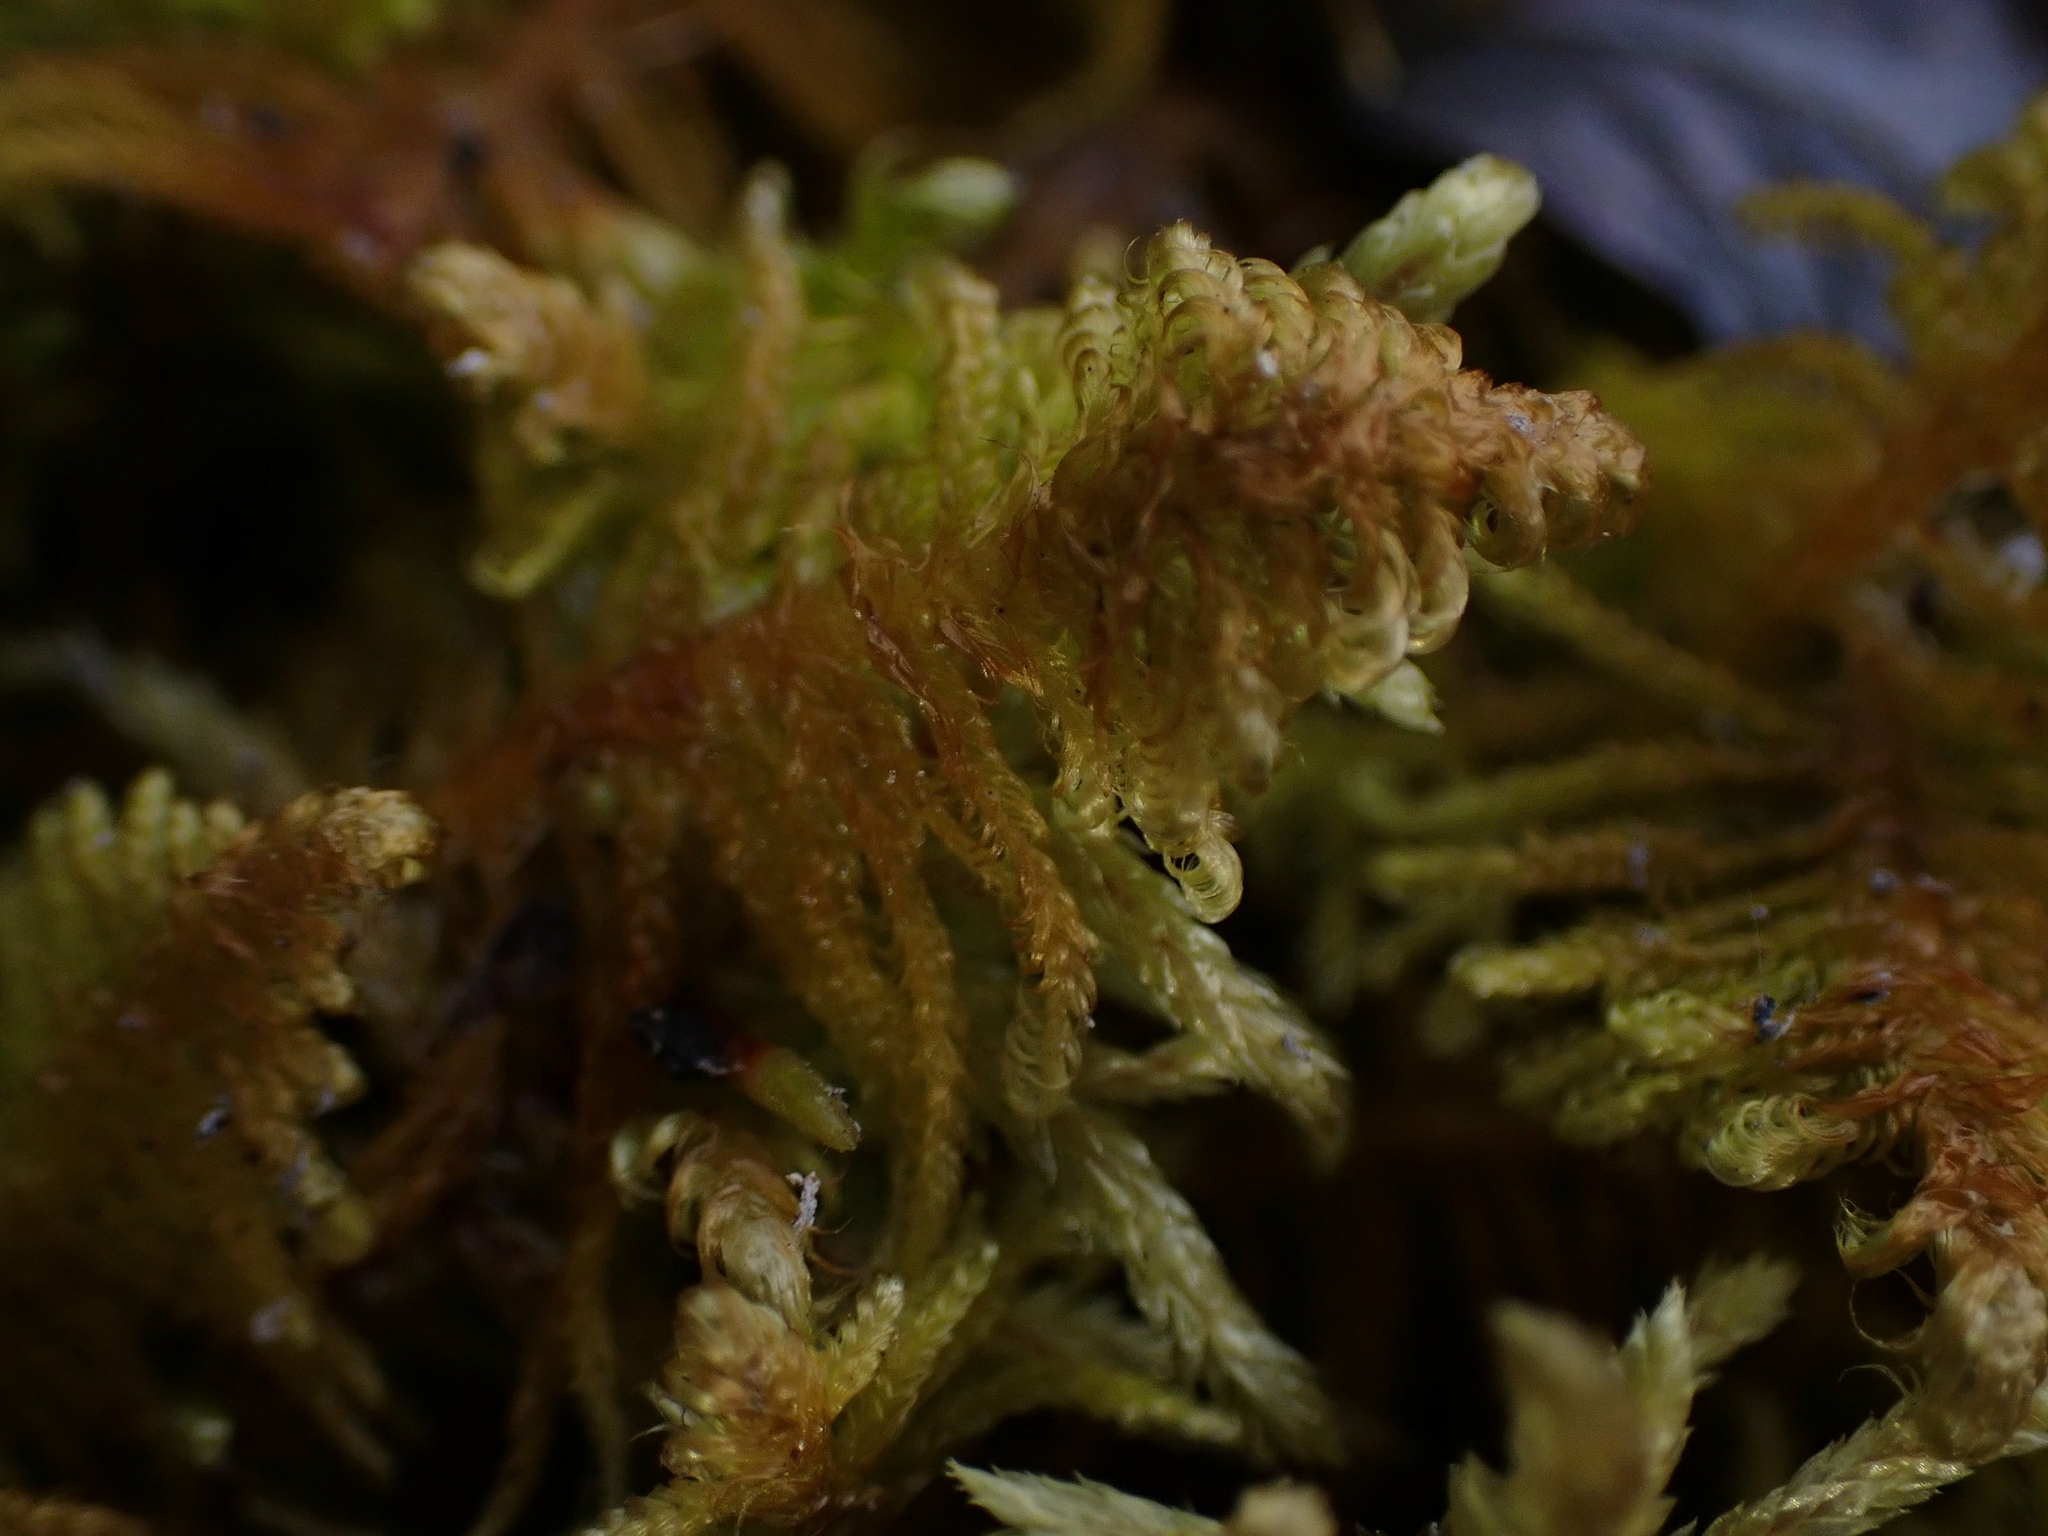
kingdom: Plantae
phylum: Bryophyta
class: Bryopsida
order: Hypnales
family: Pylaisiaceae
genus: Ptilium
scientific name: Ptilium crista-castrensis
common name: Knight's plume moss
